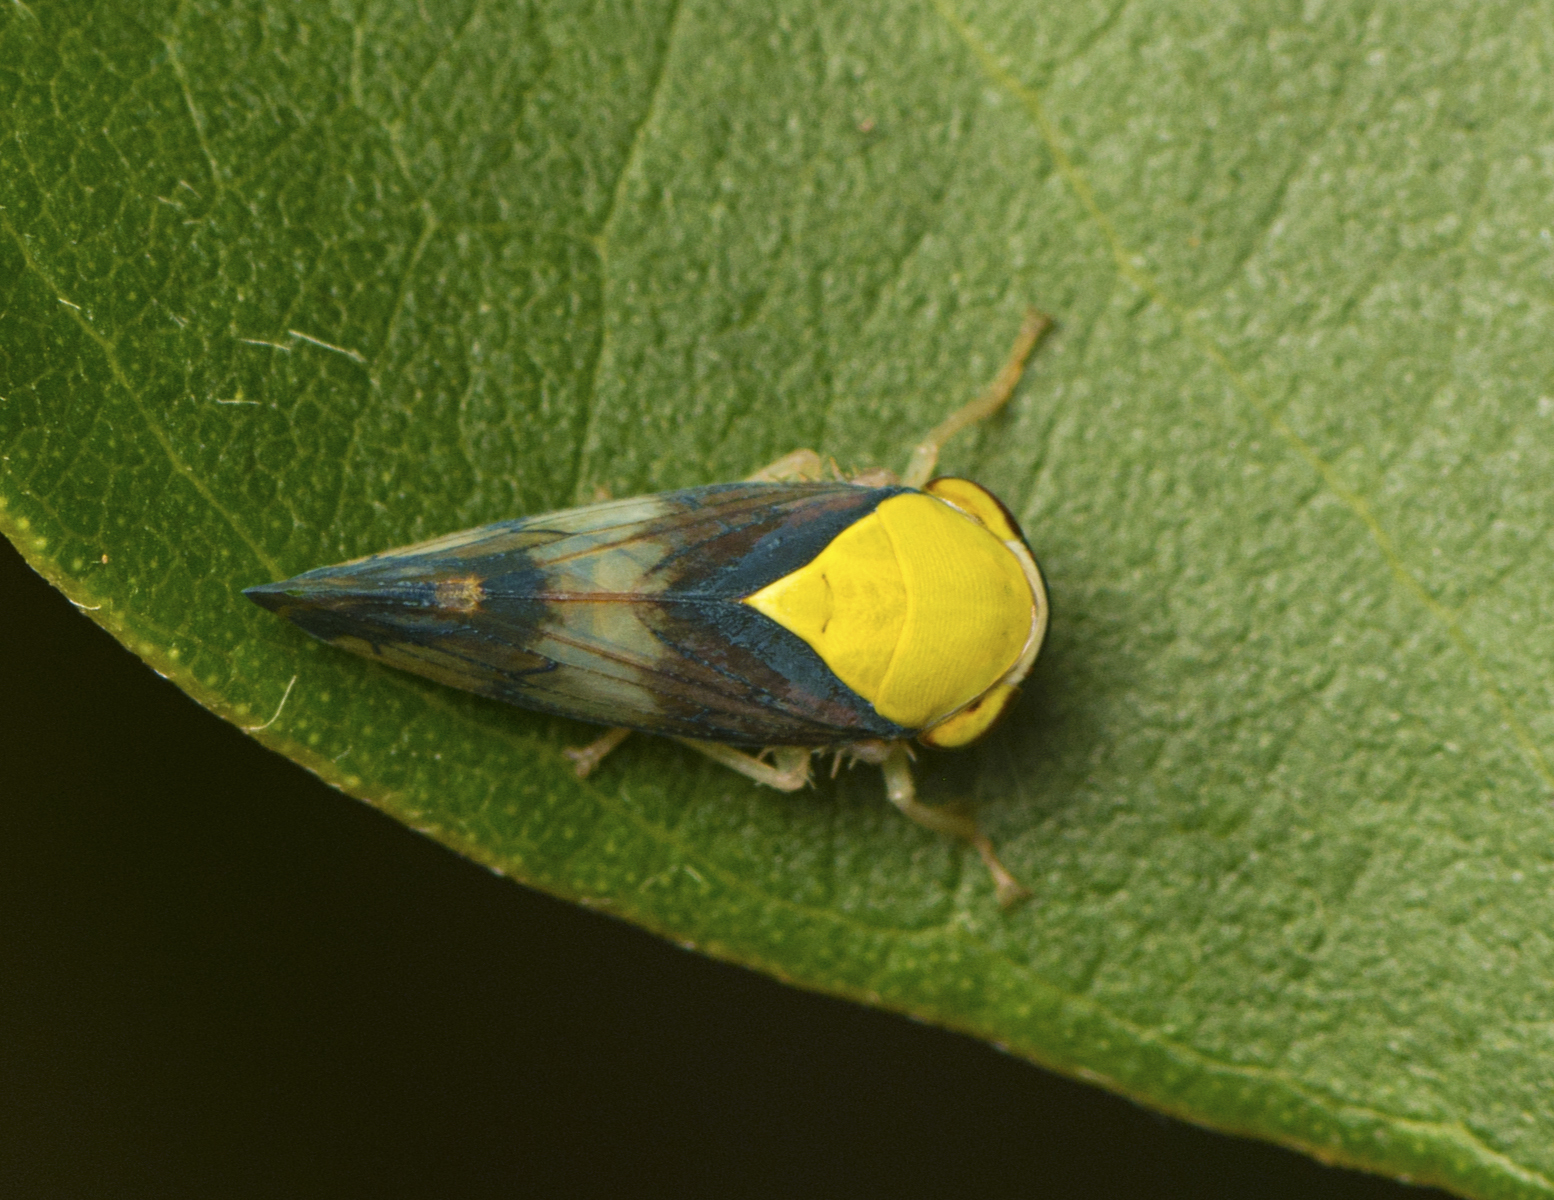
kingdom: Animalia
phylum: Arthropoda
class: Insecta
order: Hemiptera
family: Cicadellidae
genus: Brunotartessus
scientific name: Brunotartessus fulvus
